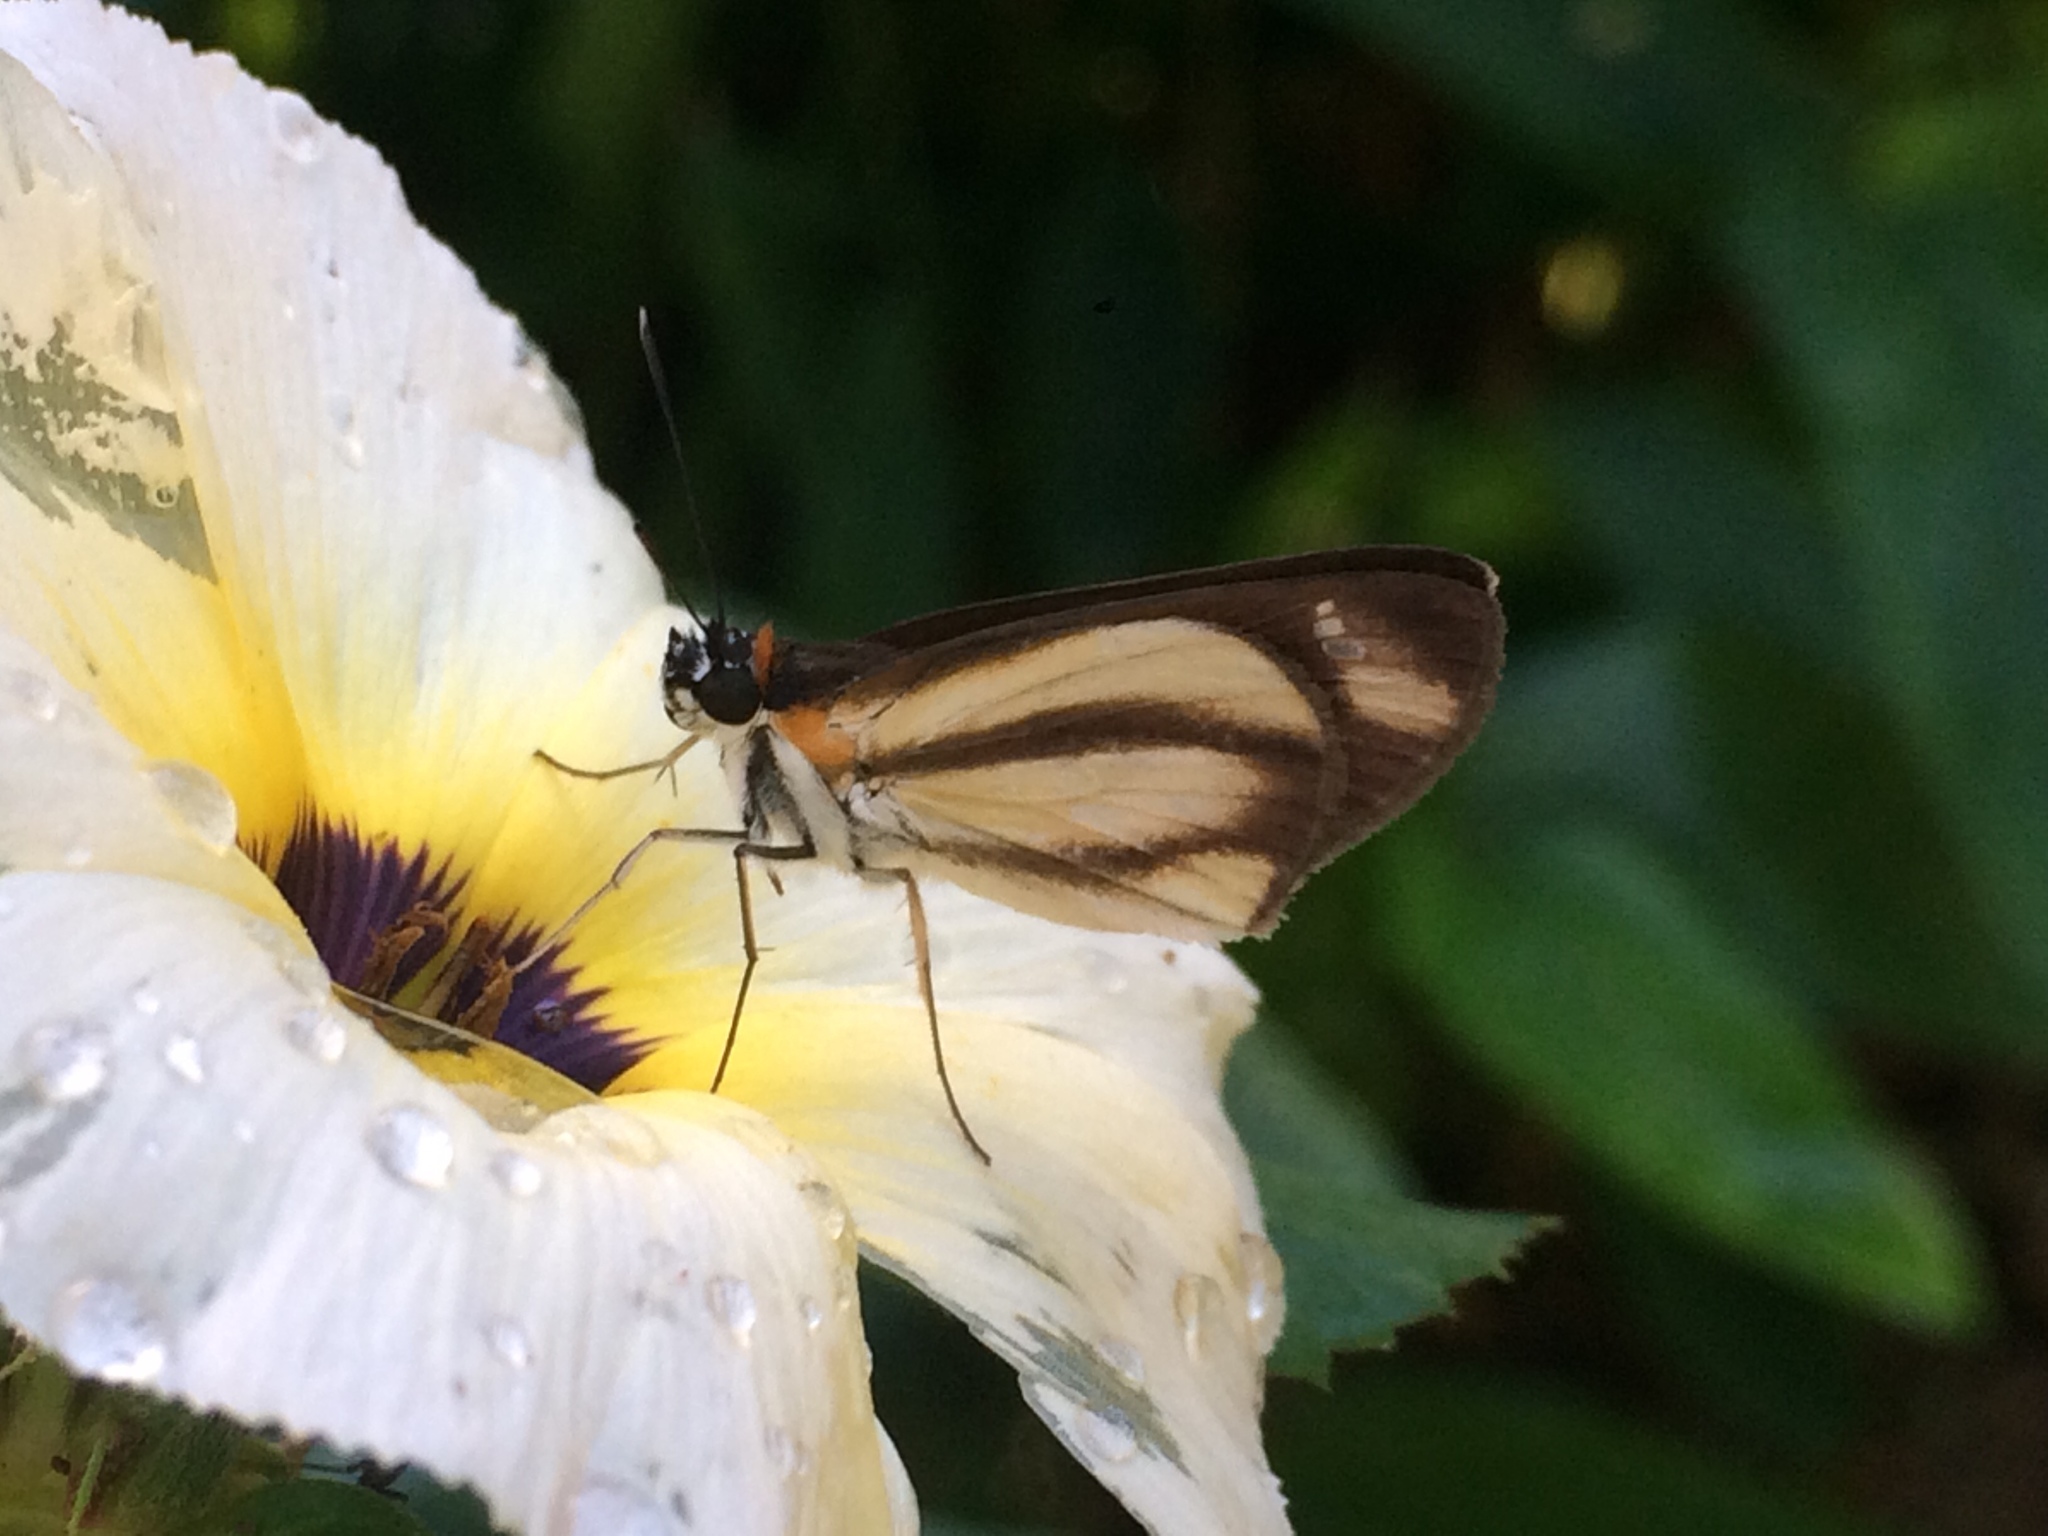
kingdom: Animalia
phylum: Arthropoda
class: Insecta
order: Lepidoptera
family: Hesperiidae
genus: Vettius
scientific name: Vettius marcus
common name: Marcus skipper
